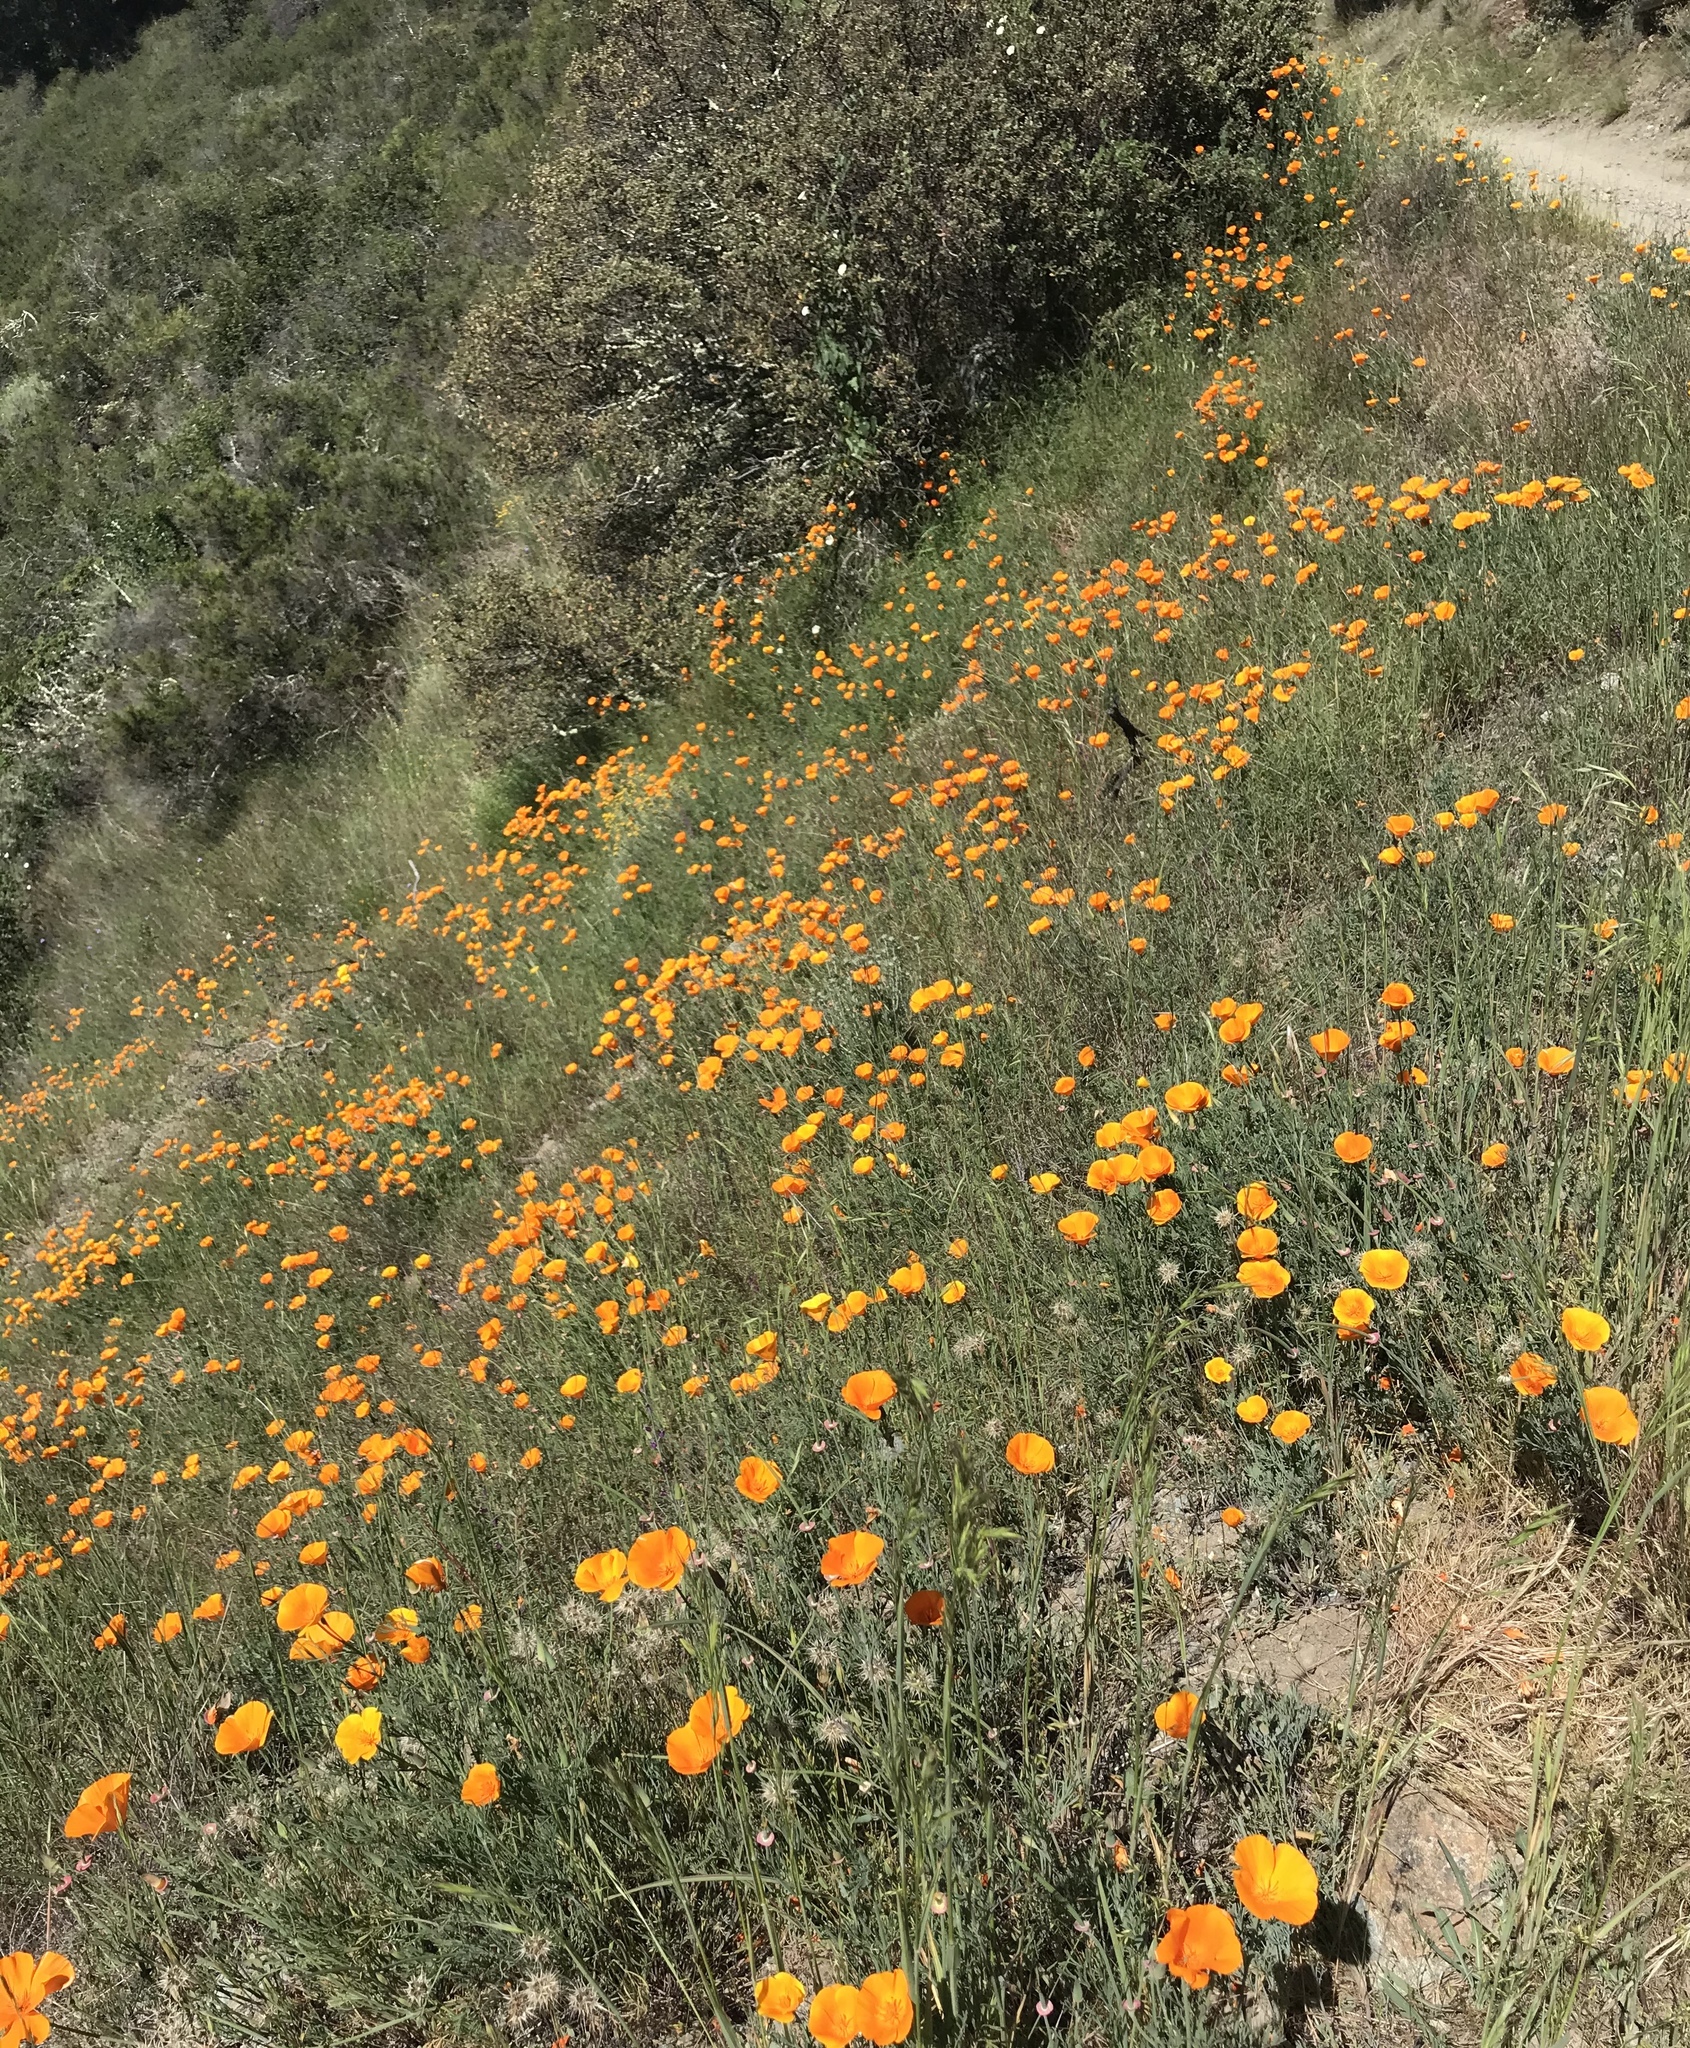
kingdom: Plantae
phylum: Tracheophyta
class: Magnoliopsida
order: Ranunculales
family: Papaveraceae
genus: Eschscholzia
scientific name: Eschscholzia californica
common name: California poppy
